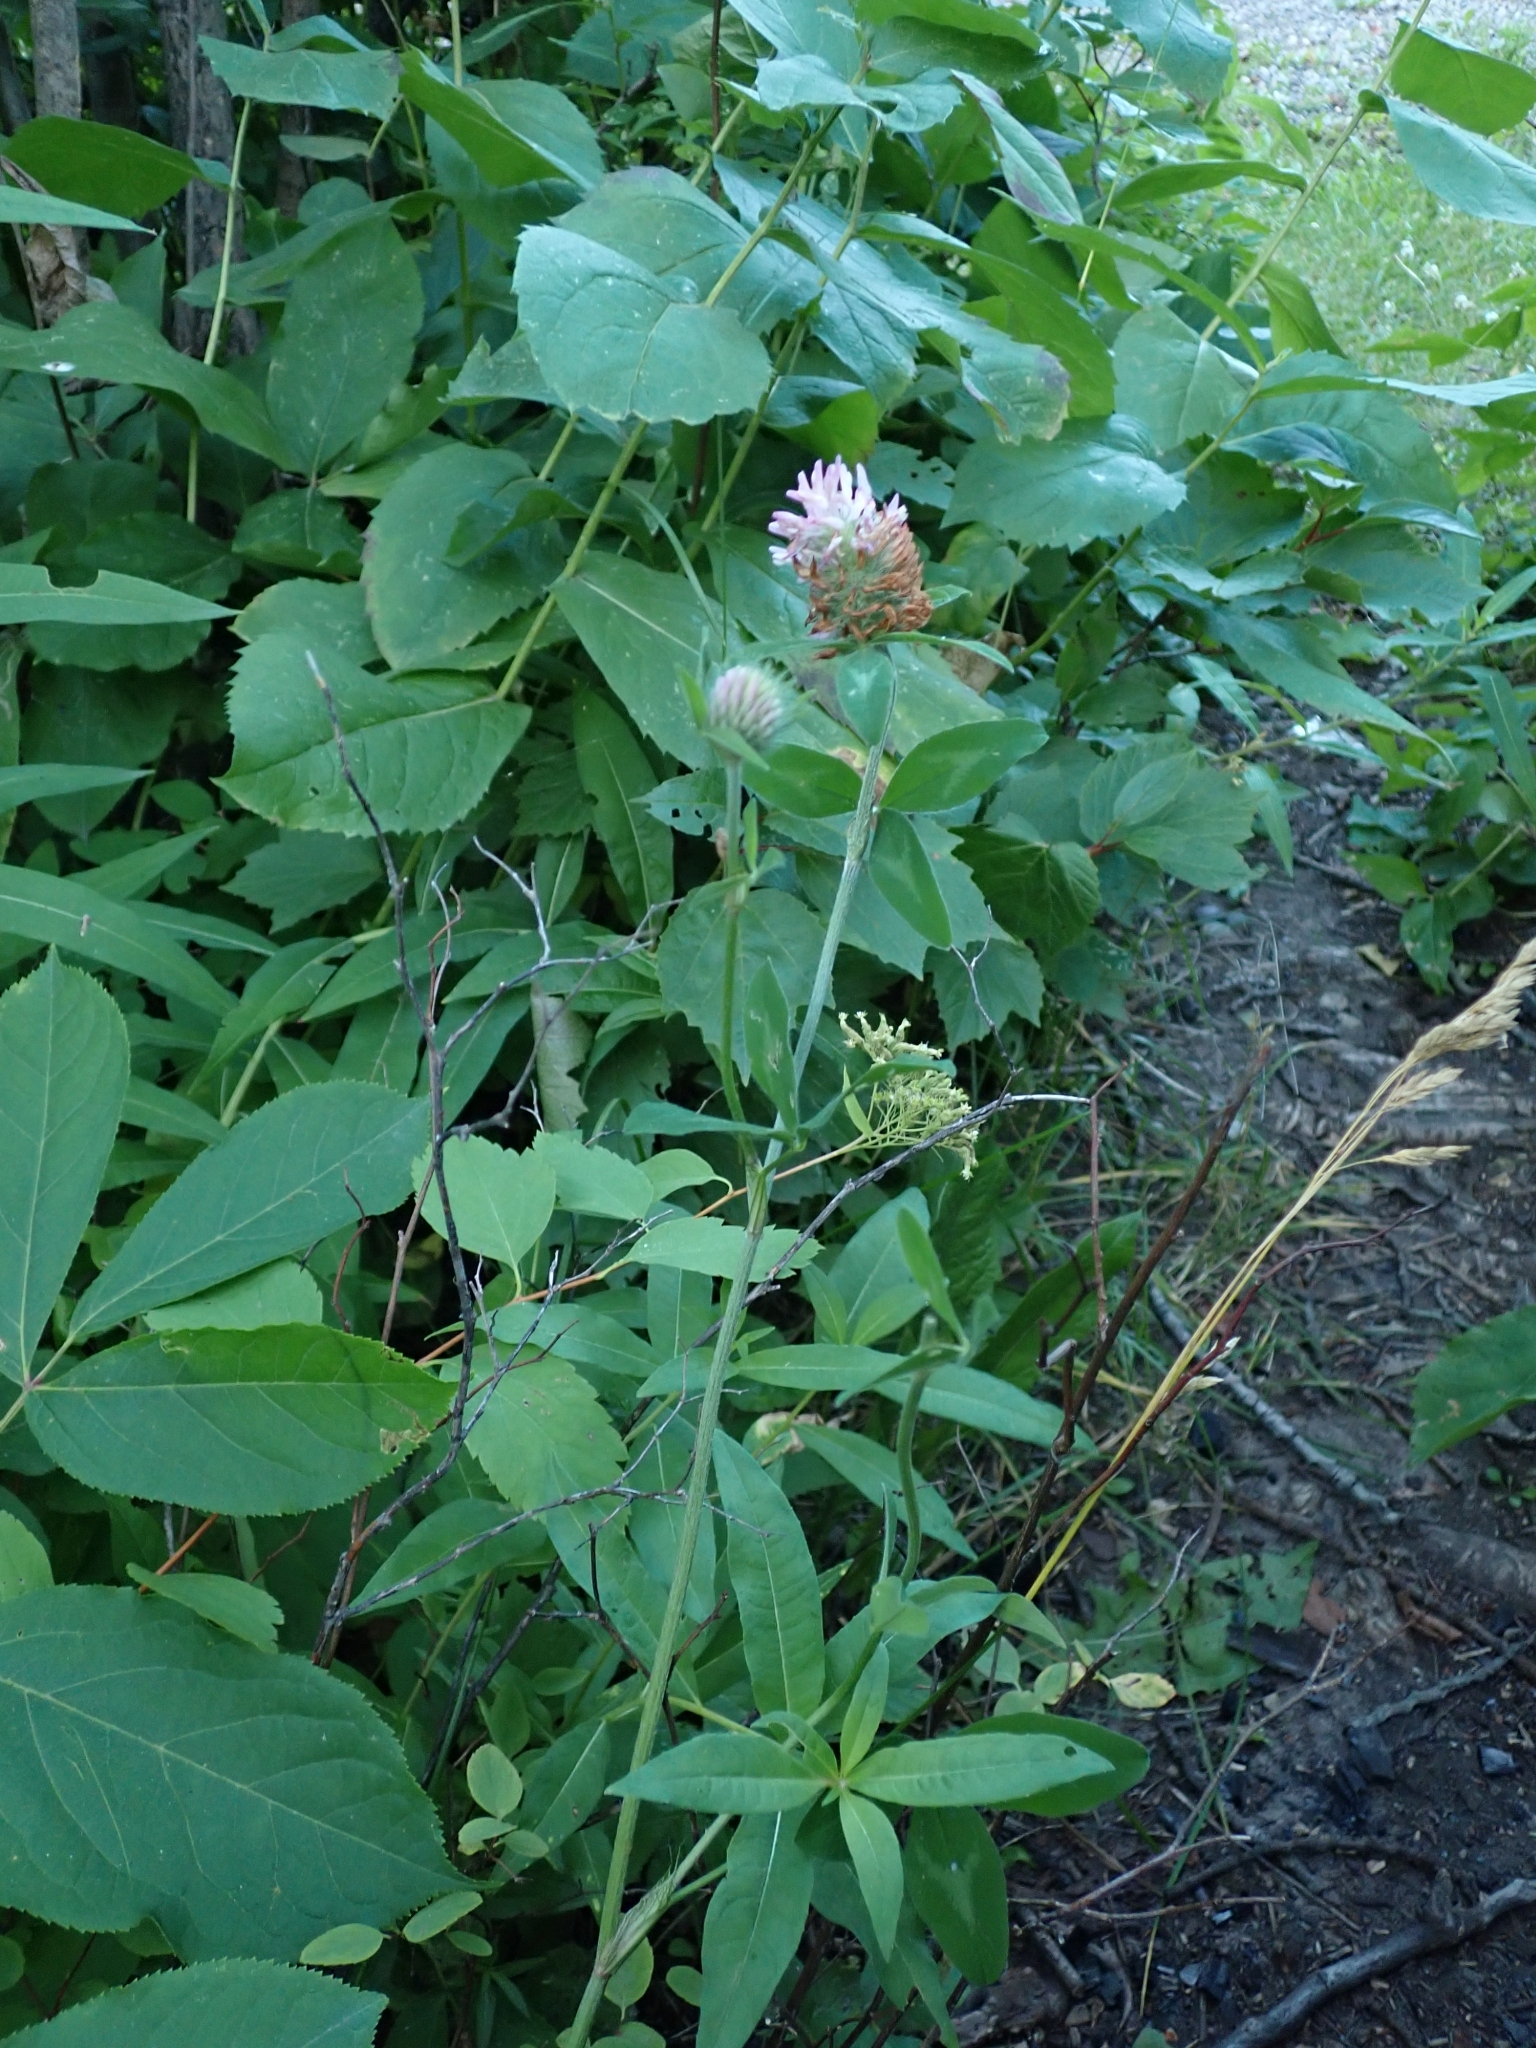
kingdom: Plantae
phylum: Tracheophyta
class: Magnoliopsida
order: Fabales
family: Fabaceae
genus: Trifolium
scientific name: Trifolium pratense
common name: Red clover
